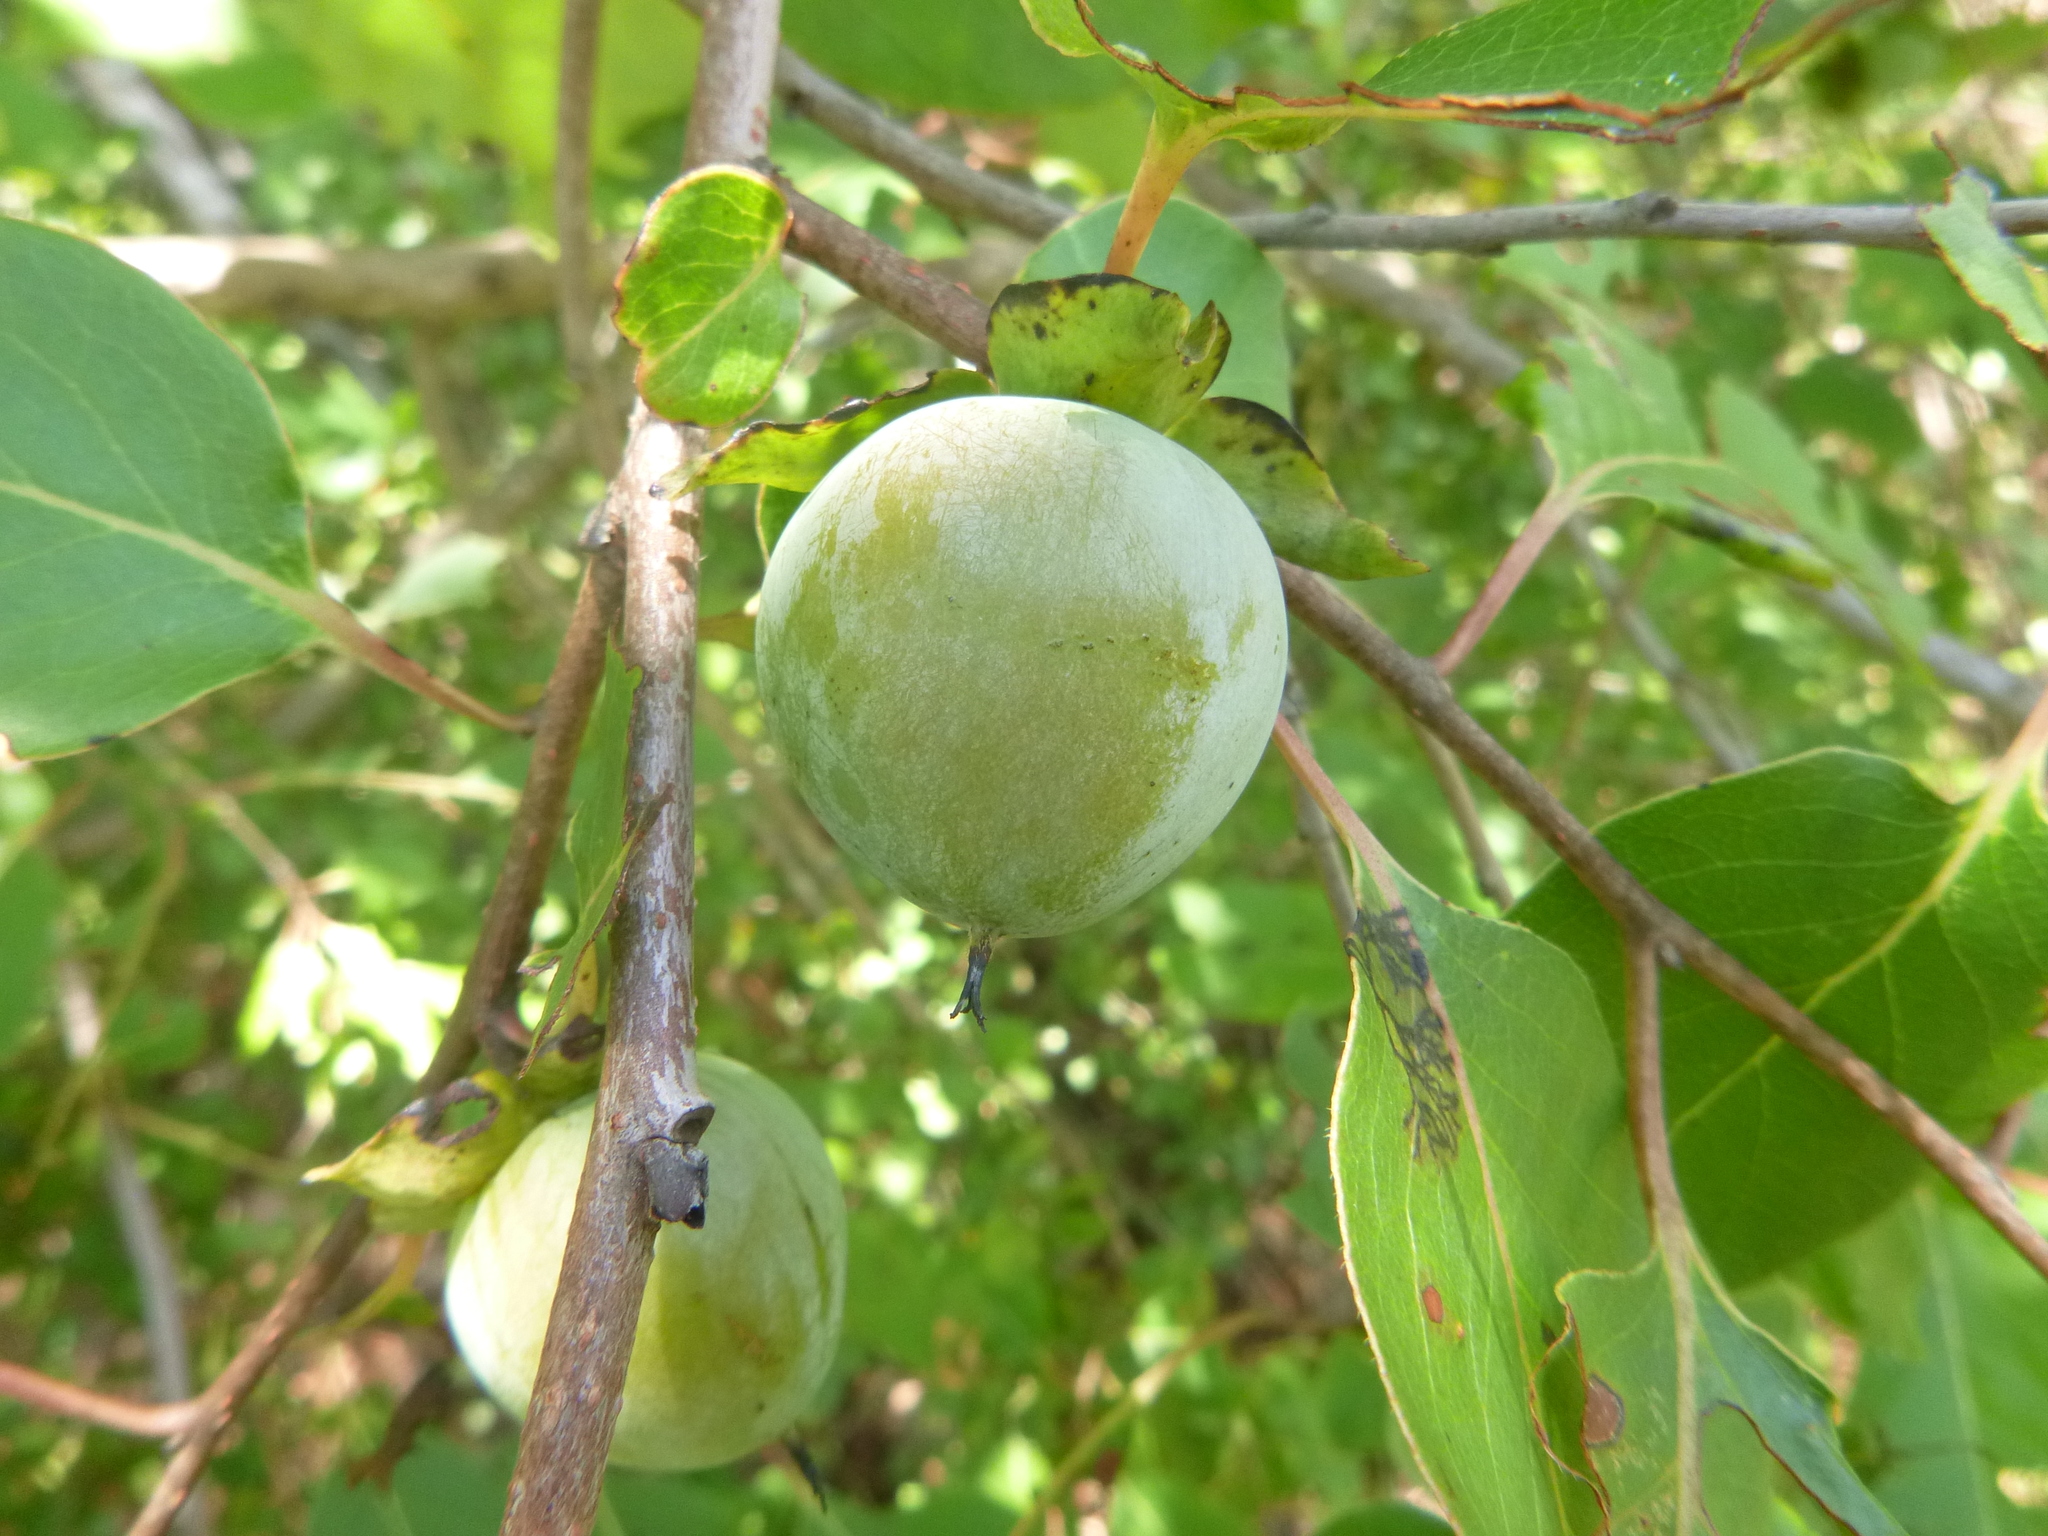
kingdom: Plantae
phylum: Tracheophyta
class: Magnoliopsida
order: Ericales
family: Ebenaceae
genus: Diospyros
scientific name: Diospyros virginiana
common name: Persimmon
